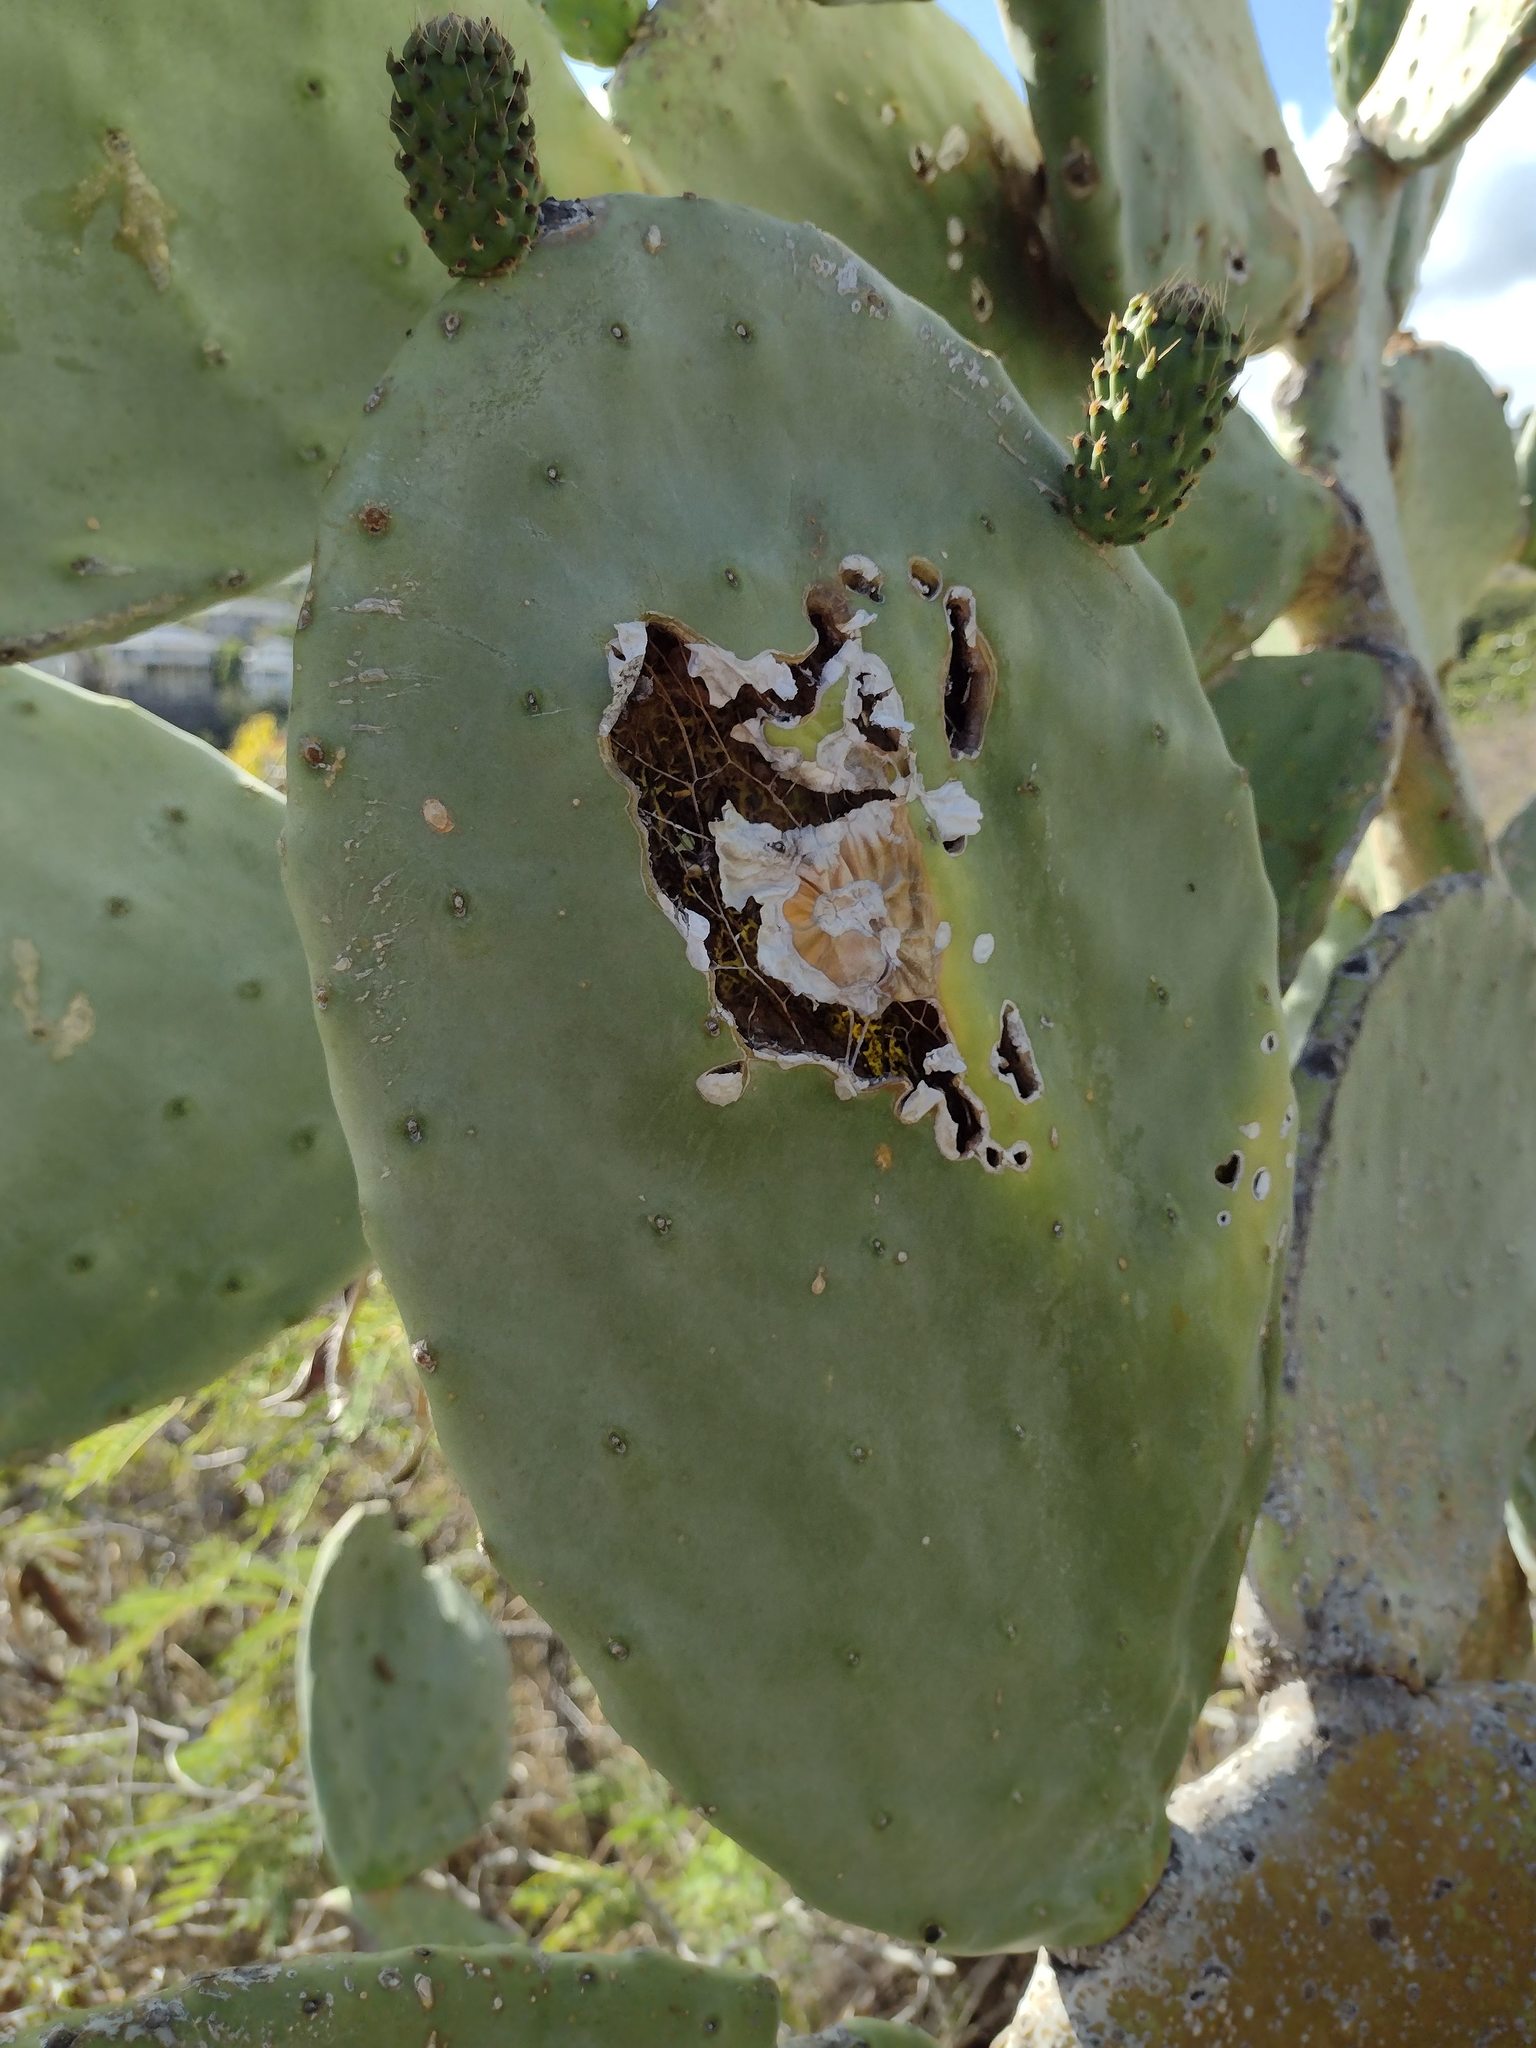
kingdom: Animalia
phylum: Arthropoda
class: Insecta
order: Lepidoptera
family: Pyralidae
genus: Cactoblastis
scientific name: Cactoblastis cactorum
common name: Cactus moth
